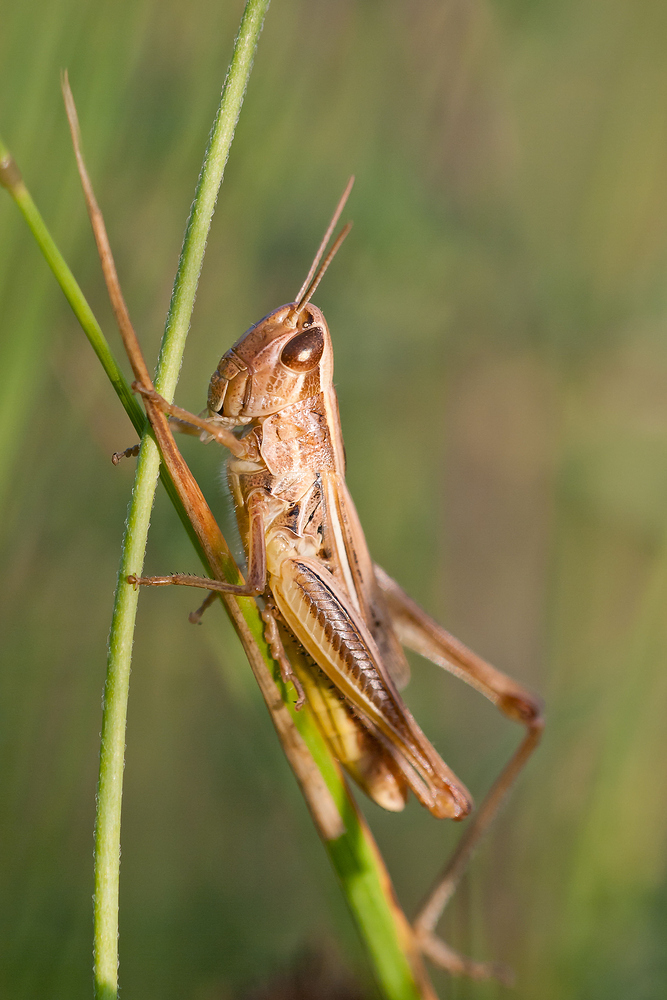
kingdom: Animalia
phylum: Arthropoda
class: Insecta
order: Orthoptera
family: Acrididae
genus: Euchorthippus
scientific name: Euchorthippus declivus
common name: Common straw grasshopper
